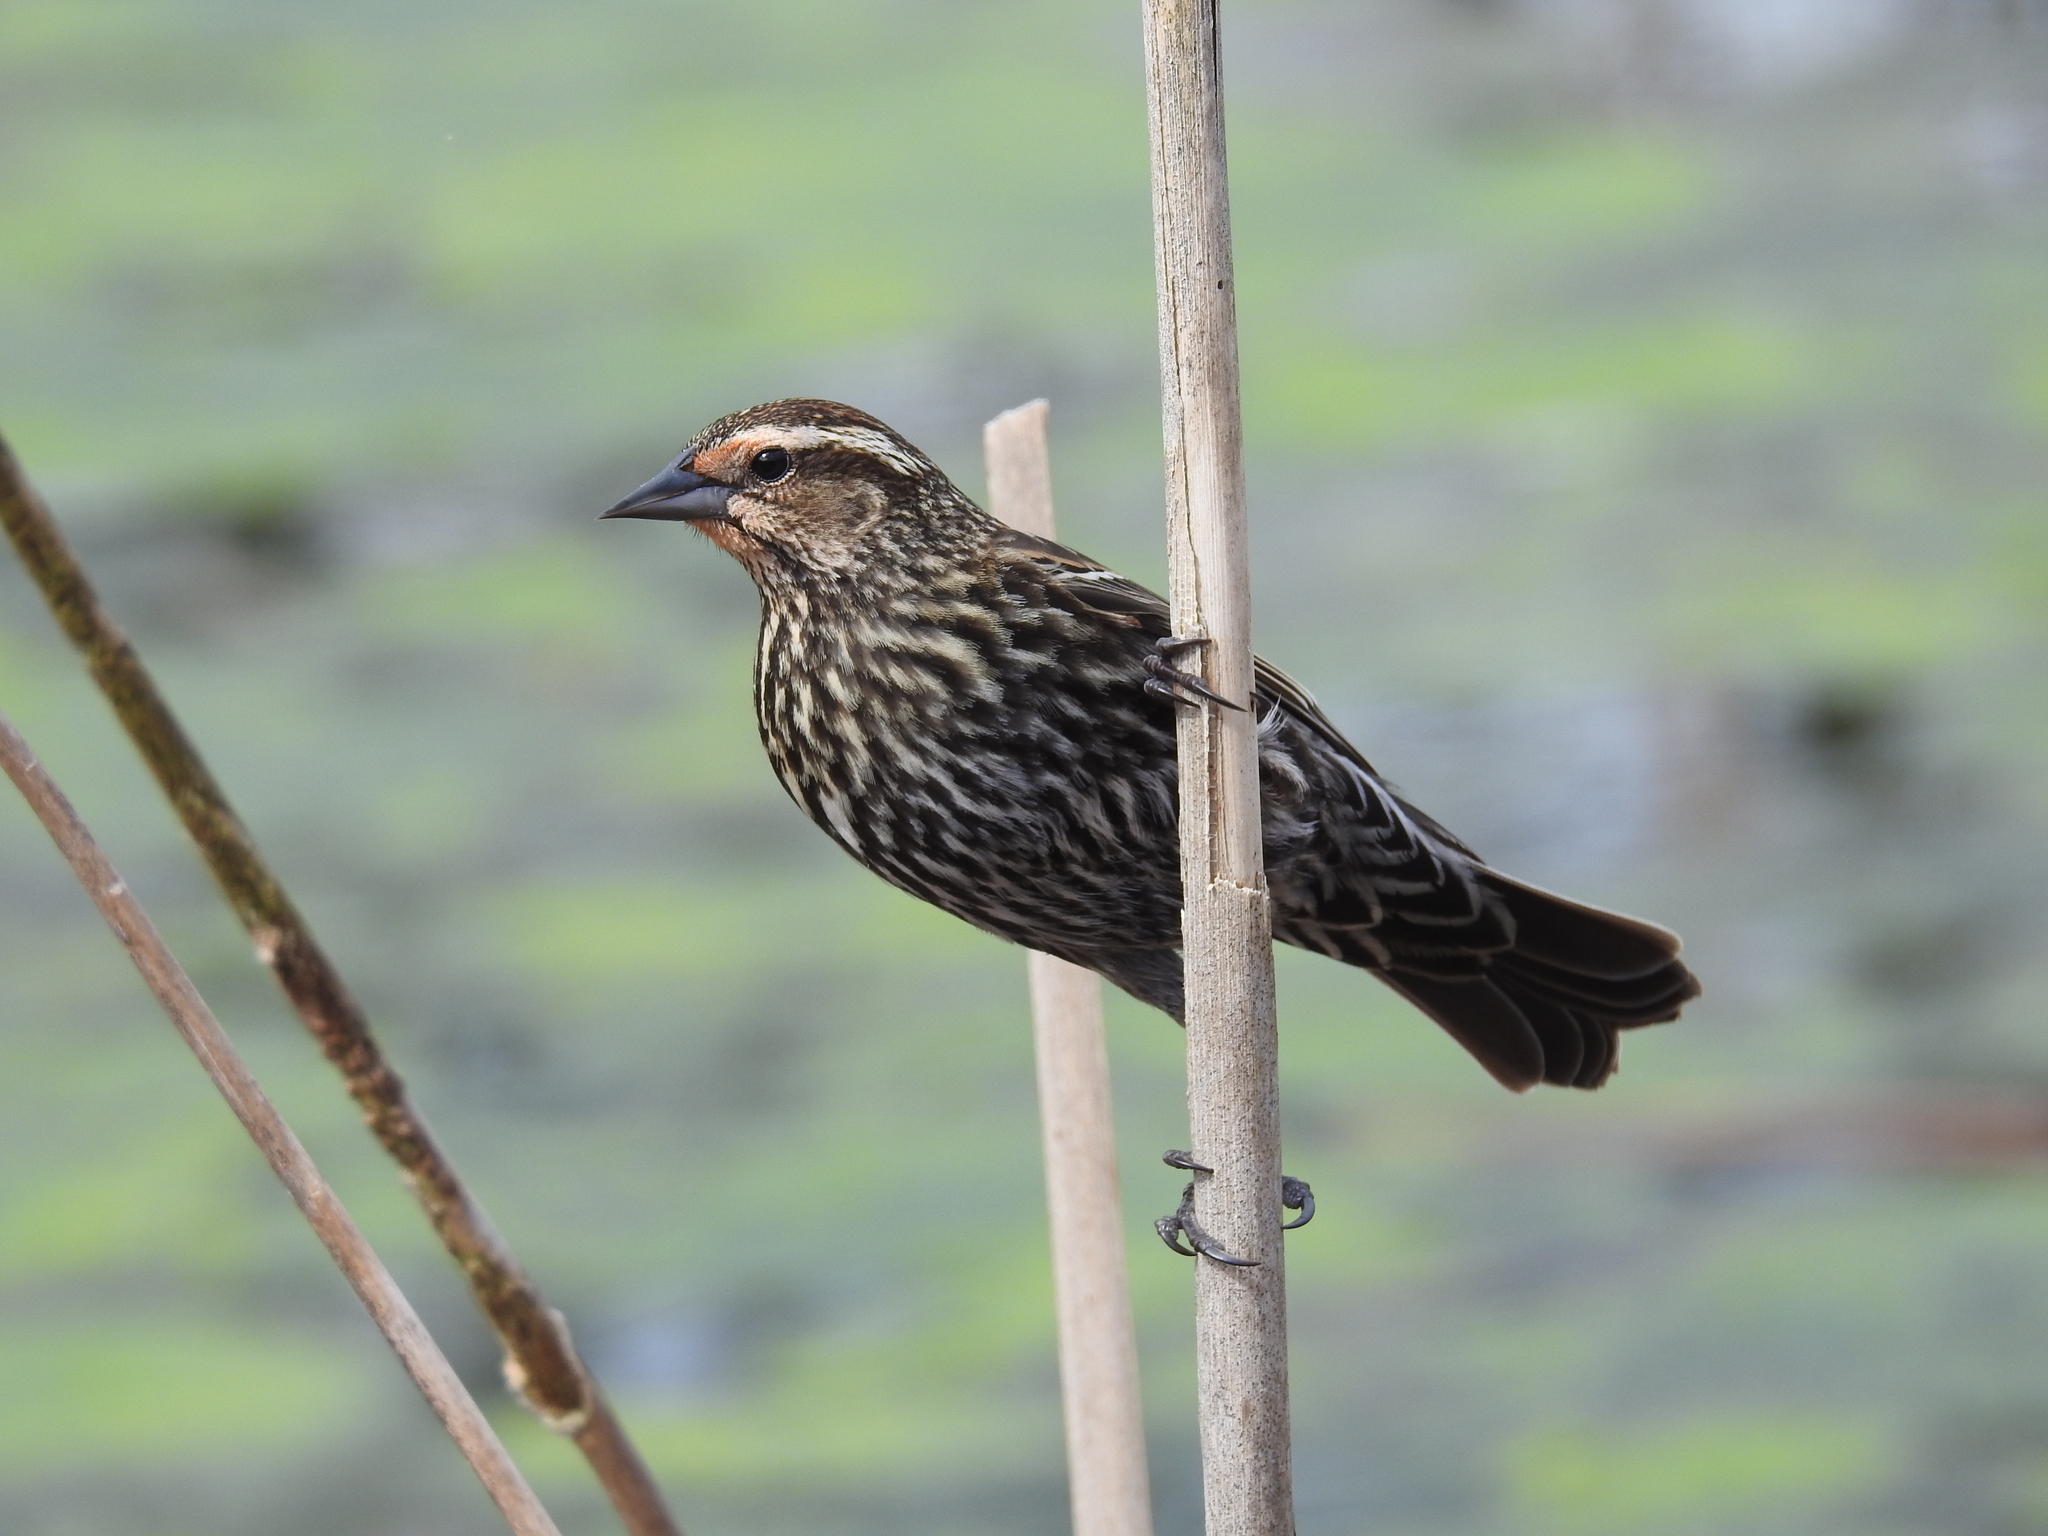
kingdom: Animalia
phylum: Chordata
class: Aves
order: Passeriformes
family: Icteridae
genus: Agelaius
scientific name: Agelaius phoeniceus
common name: Red-winged blackbird
